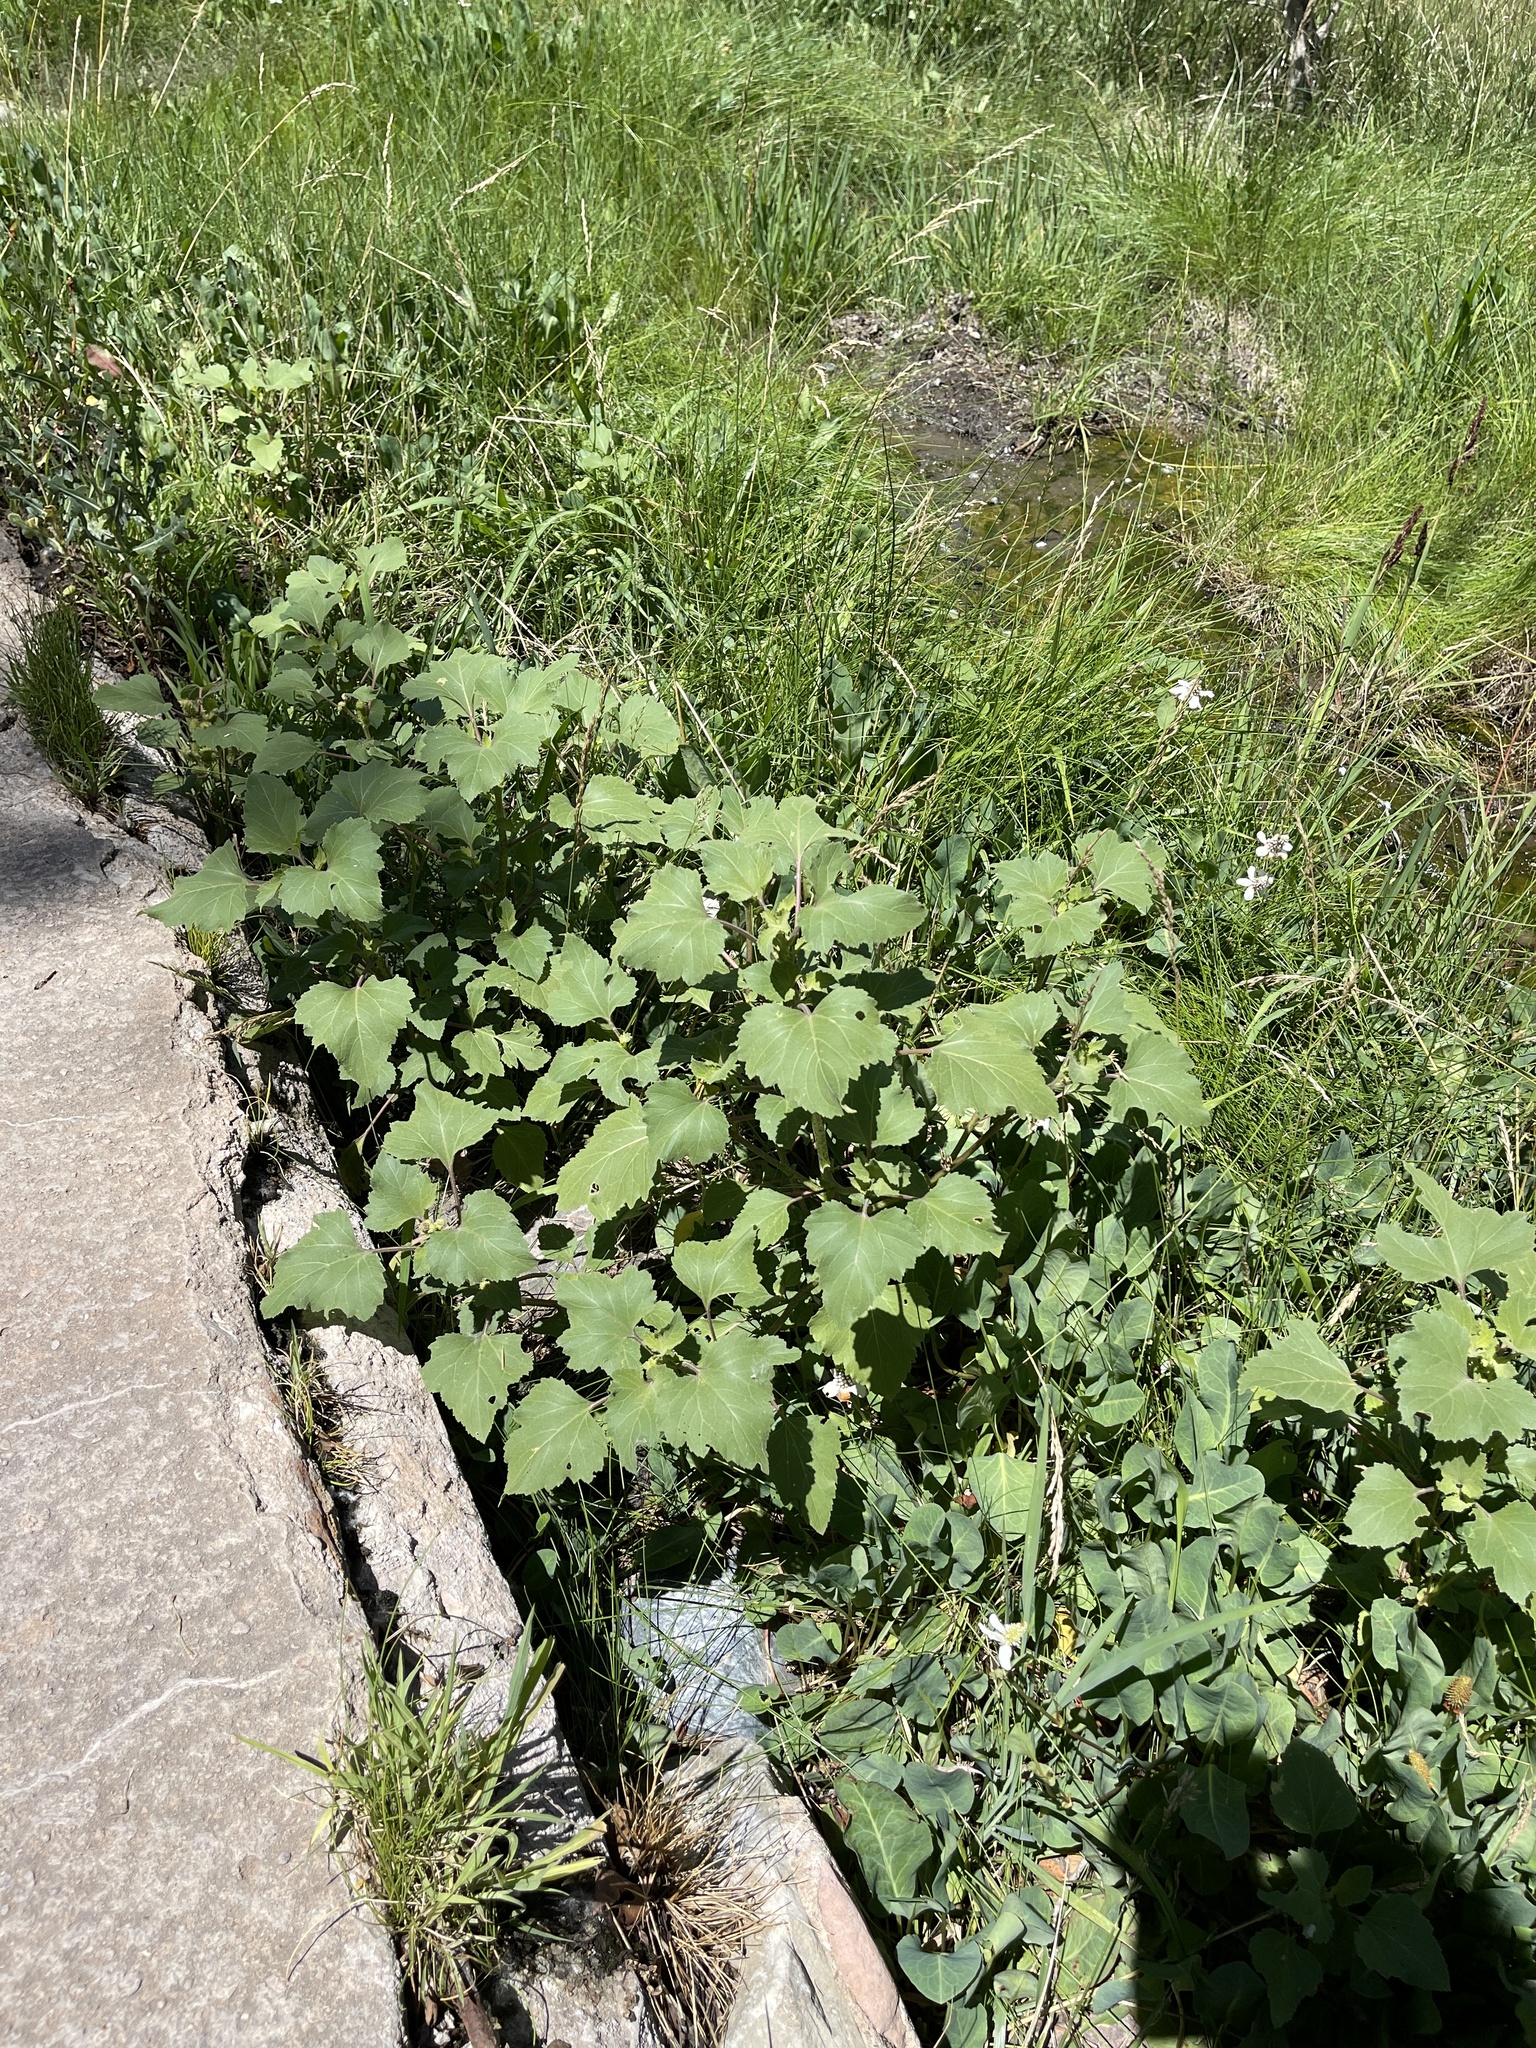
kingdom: Plantae
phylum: Tracheophyta
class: Magnoliopsida
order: Asterales
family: Asteraceae
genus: Xanthium
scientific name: Xanthium strumarium
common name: Rough cocklebur
